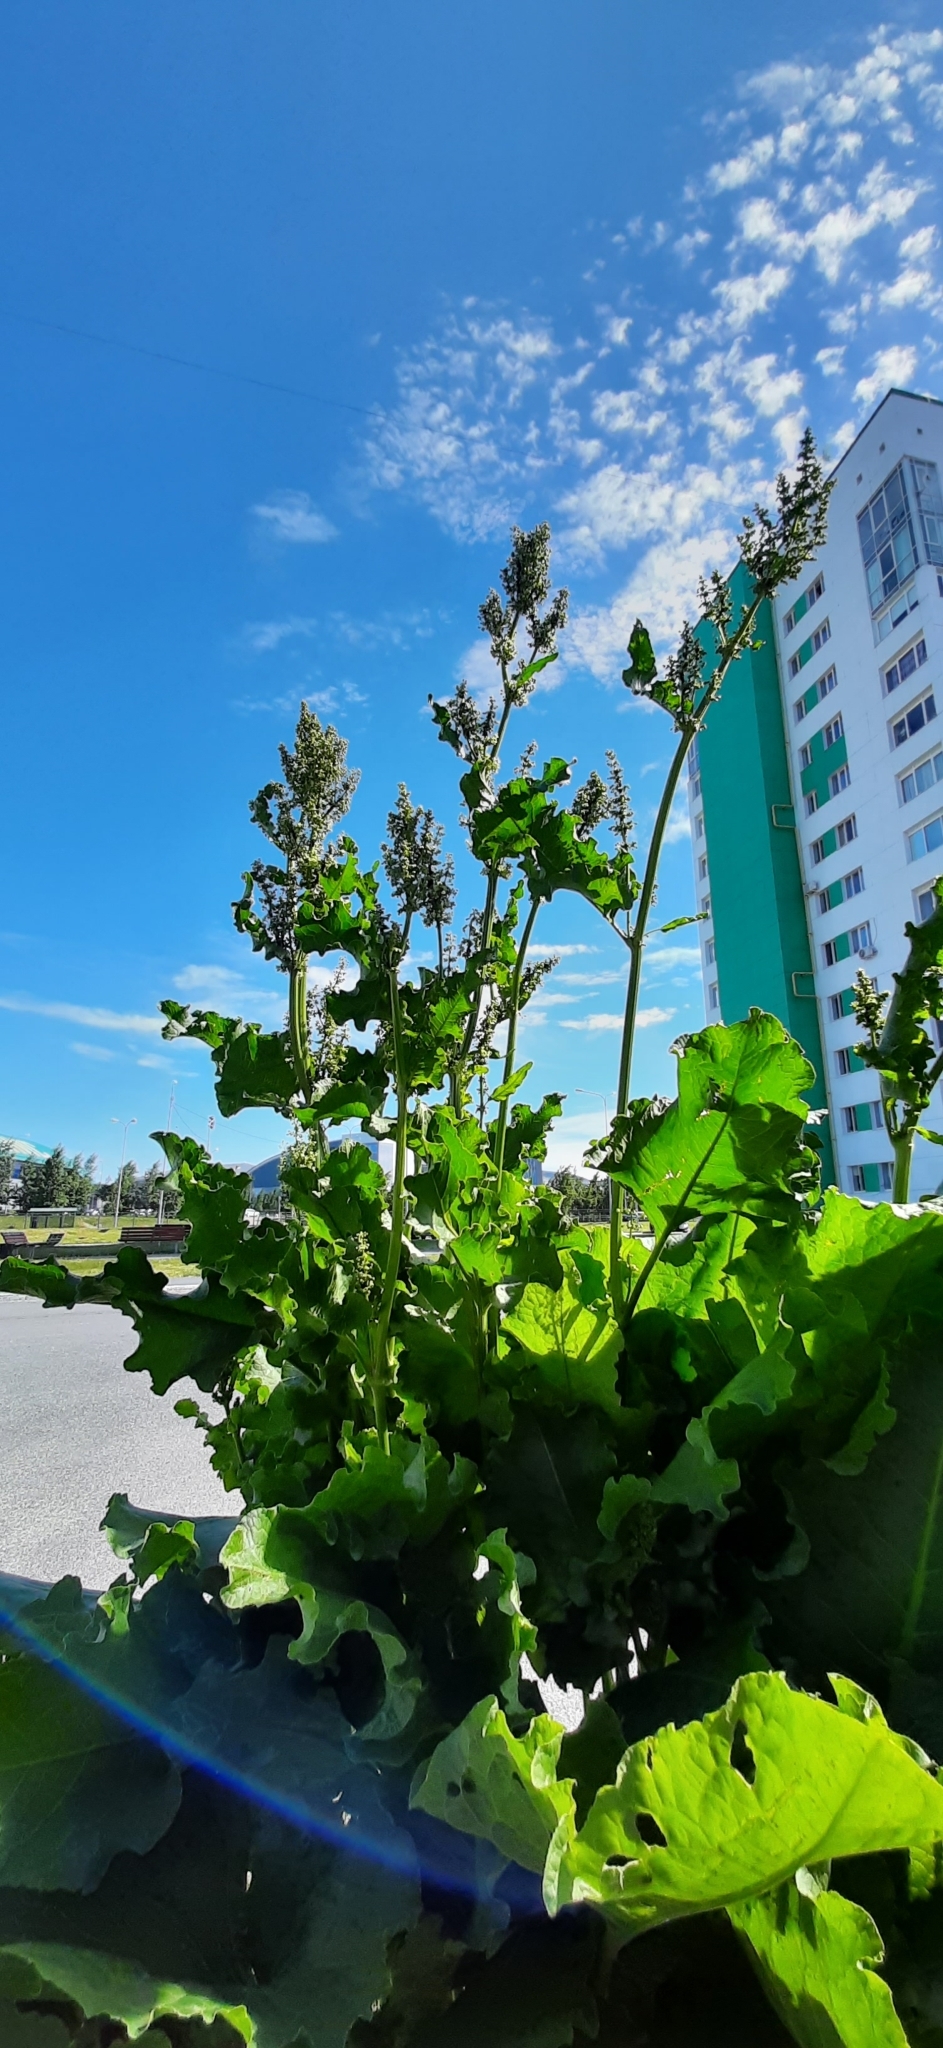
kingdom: Plantae
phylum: Tracheophyta
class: Magnoliopsida
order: Caryophyllales
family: Polygonaceae
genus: Rumex
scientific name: Rumex confertus
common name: Russian dock
